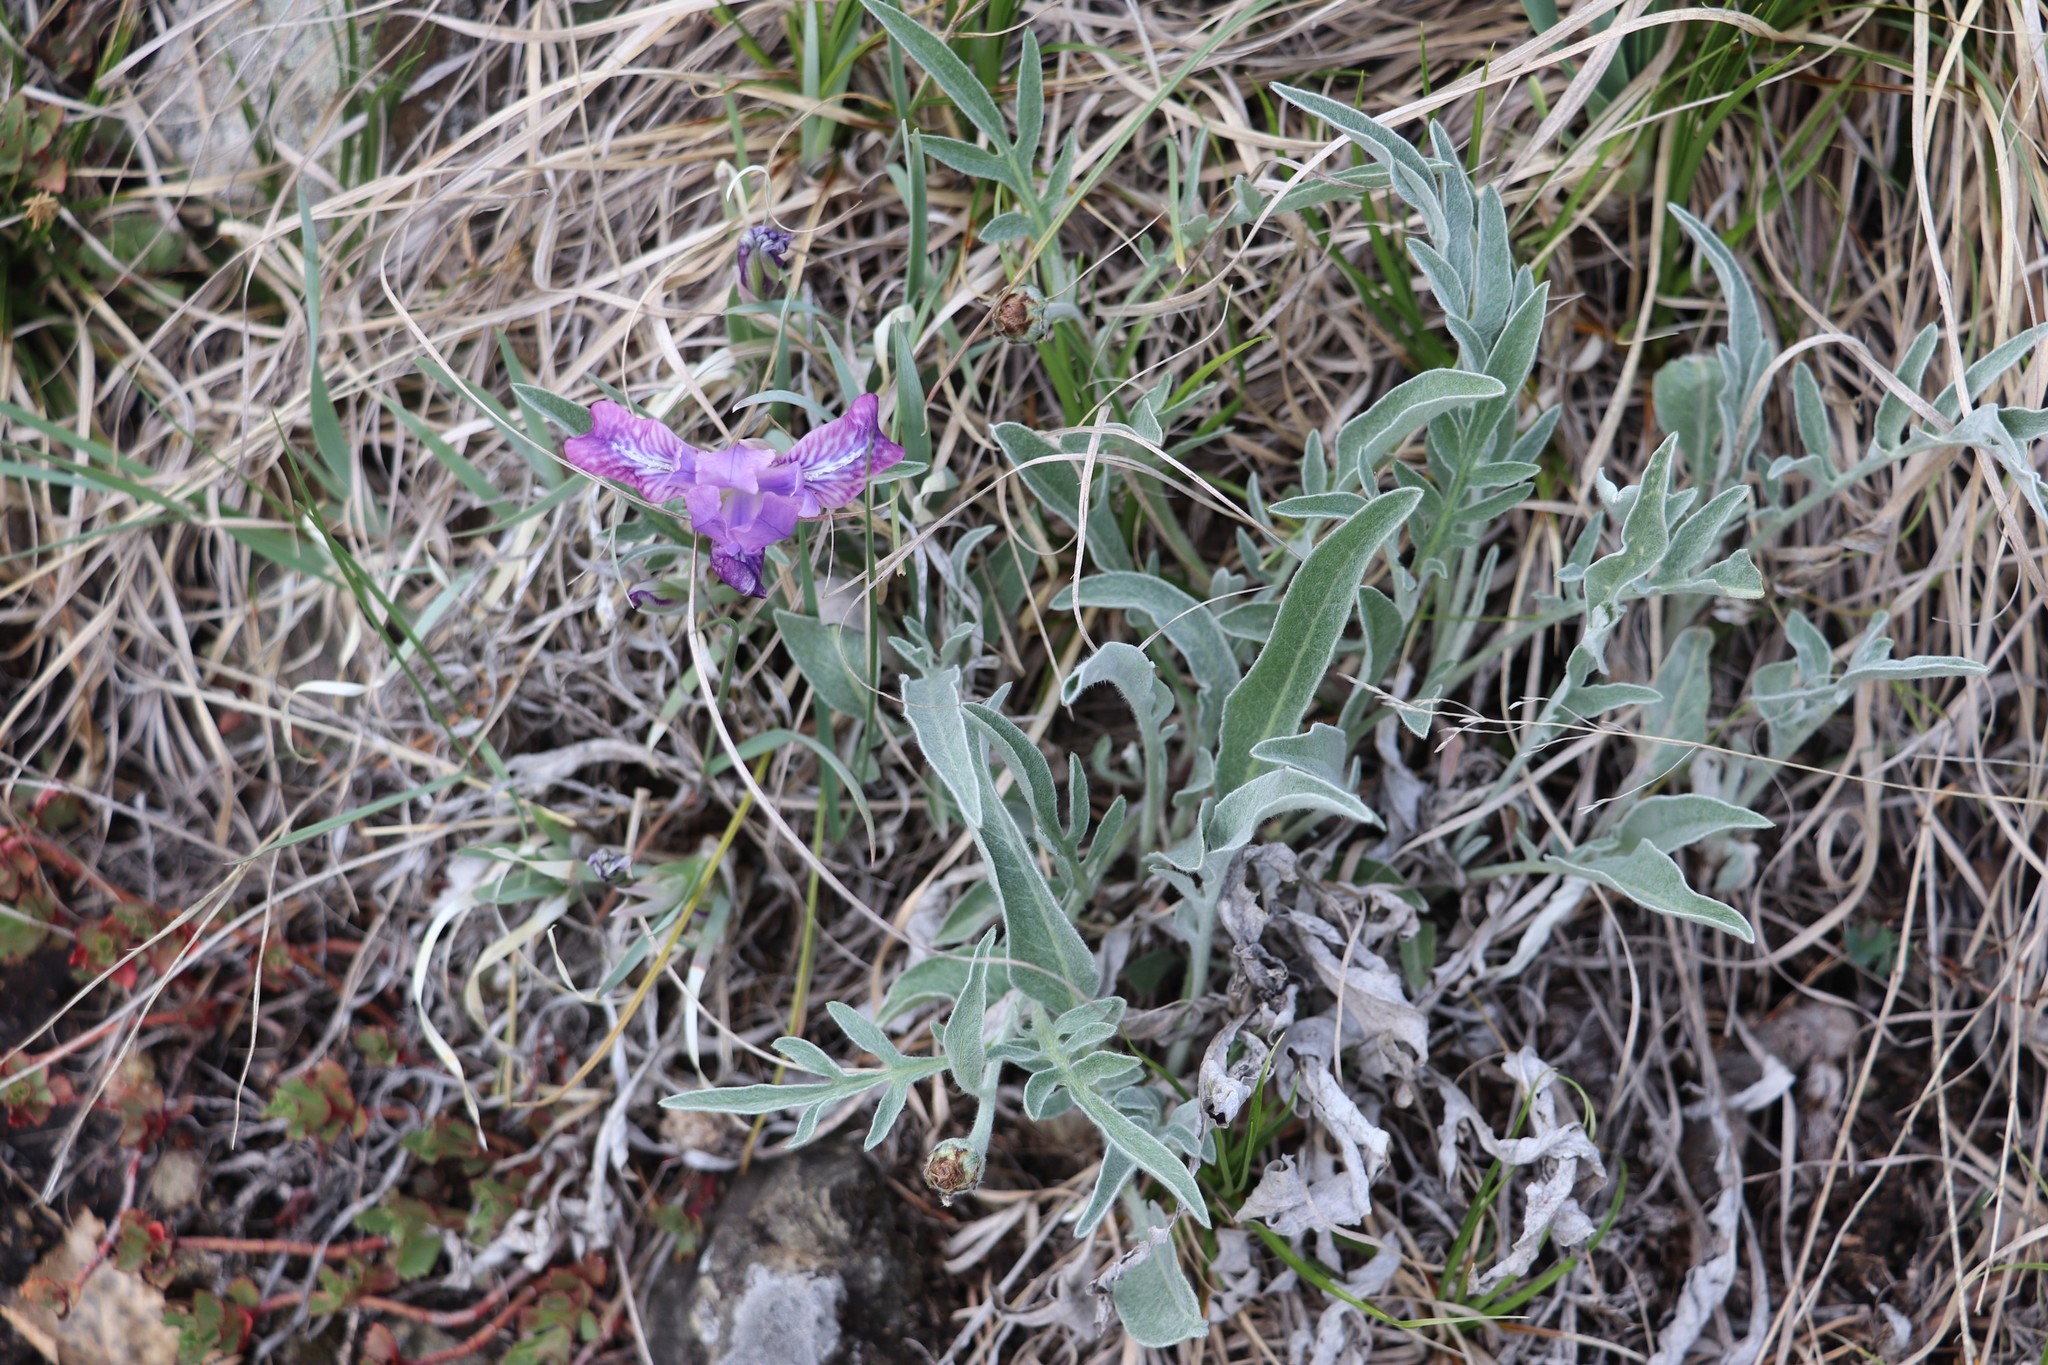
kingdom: Plantae
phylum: Tracheophyta
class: Liliopsida
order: Asparagales
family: Iridaceae
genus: Iris
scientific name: Iris tigridia
